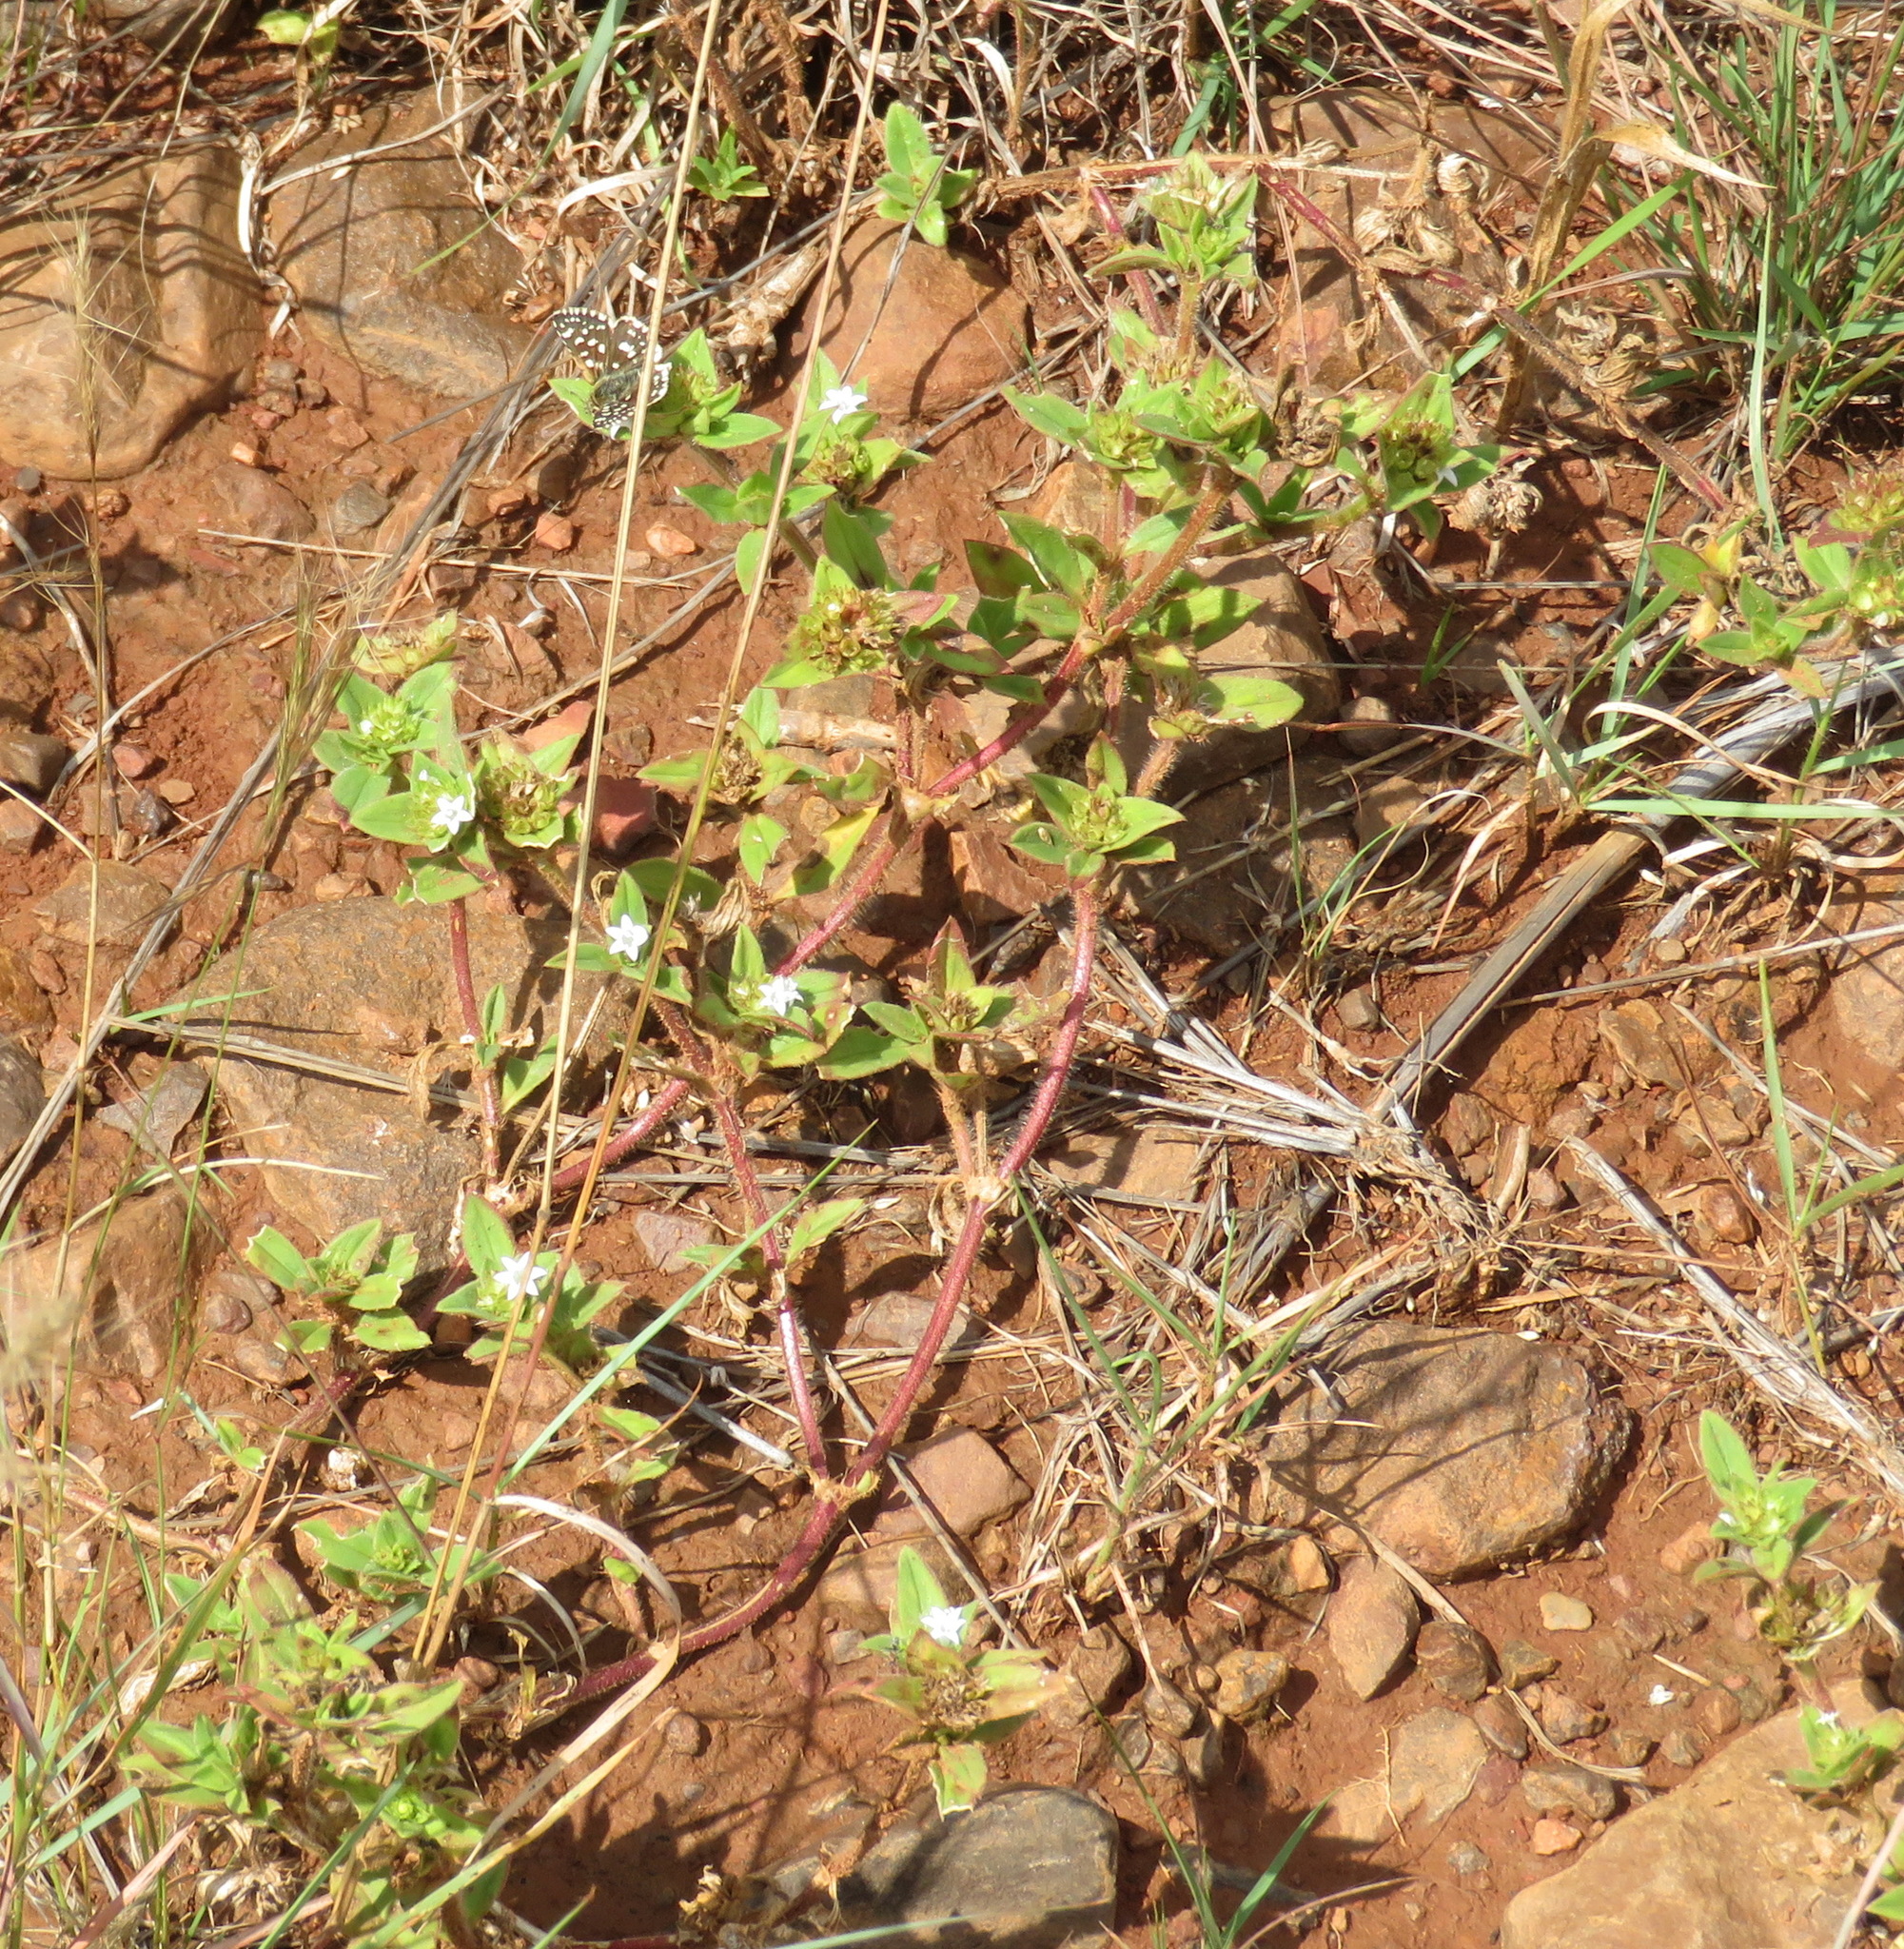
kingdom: Plantae
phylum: Tracheophyta
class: Magnoliopsida
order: Gentianales
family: Rubiaceae
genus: Richardia
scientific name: Richardia brasiliensis
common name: Tropical mexican clover
